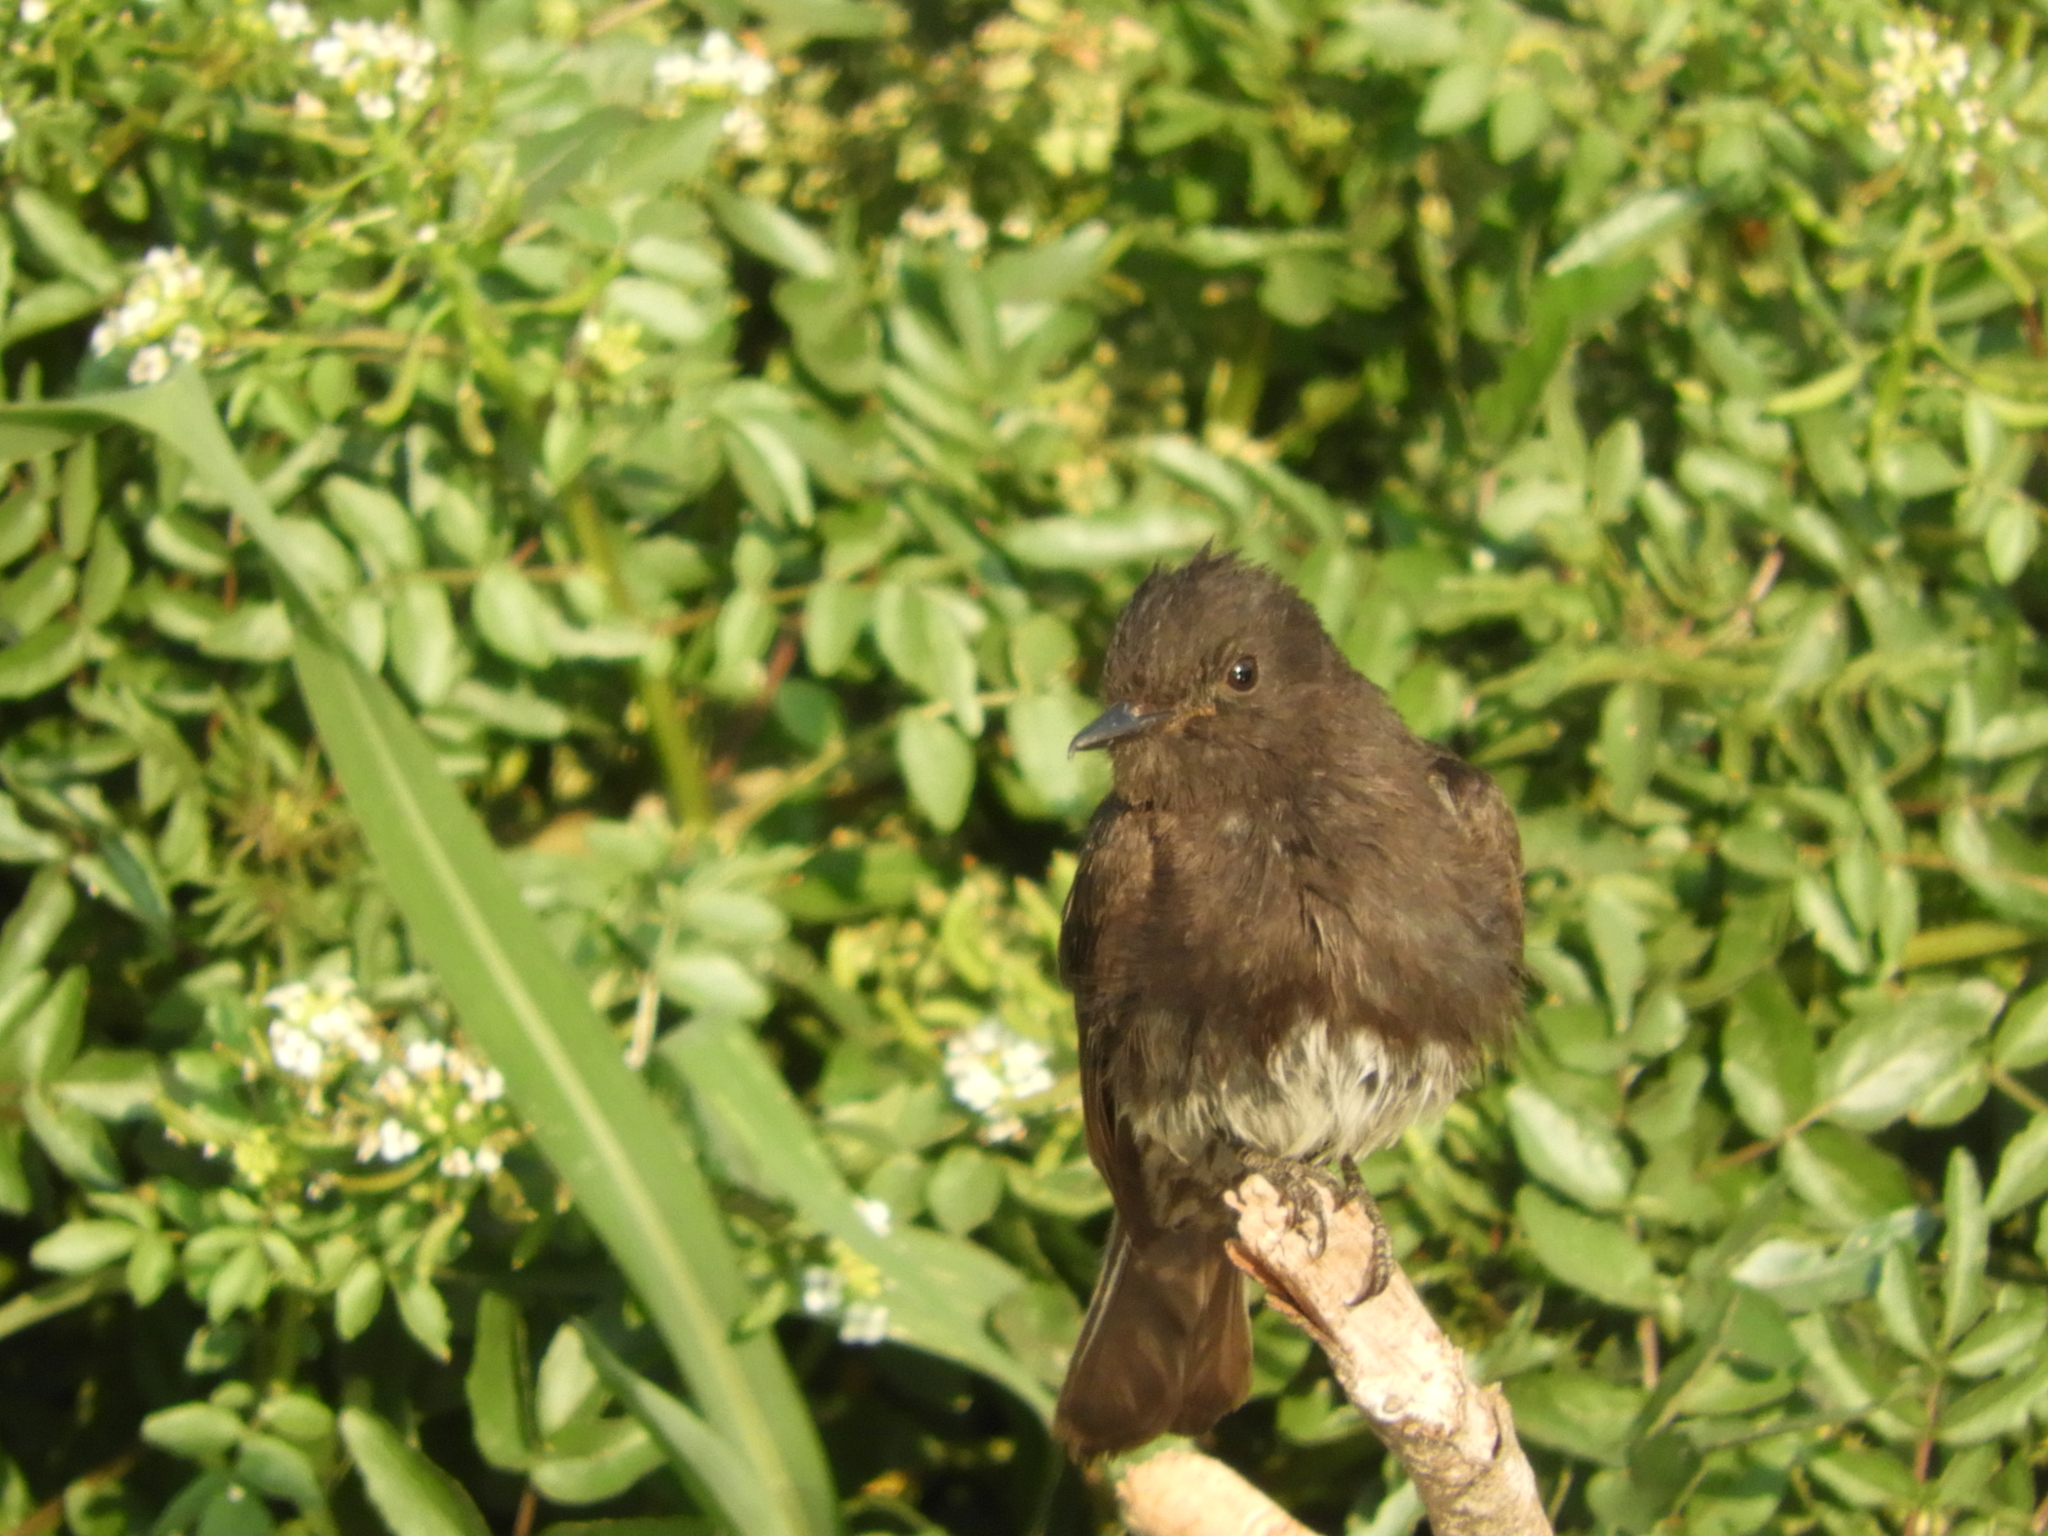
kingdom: Animalia
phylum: Chordata
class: Aves
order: Passeriformes
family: Tyrannidae
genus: Sayornis
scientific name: Sayornis nigricans
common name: Black phoebe
